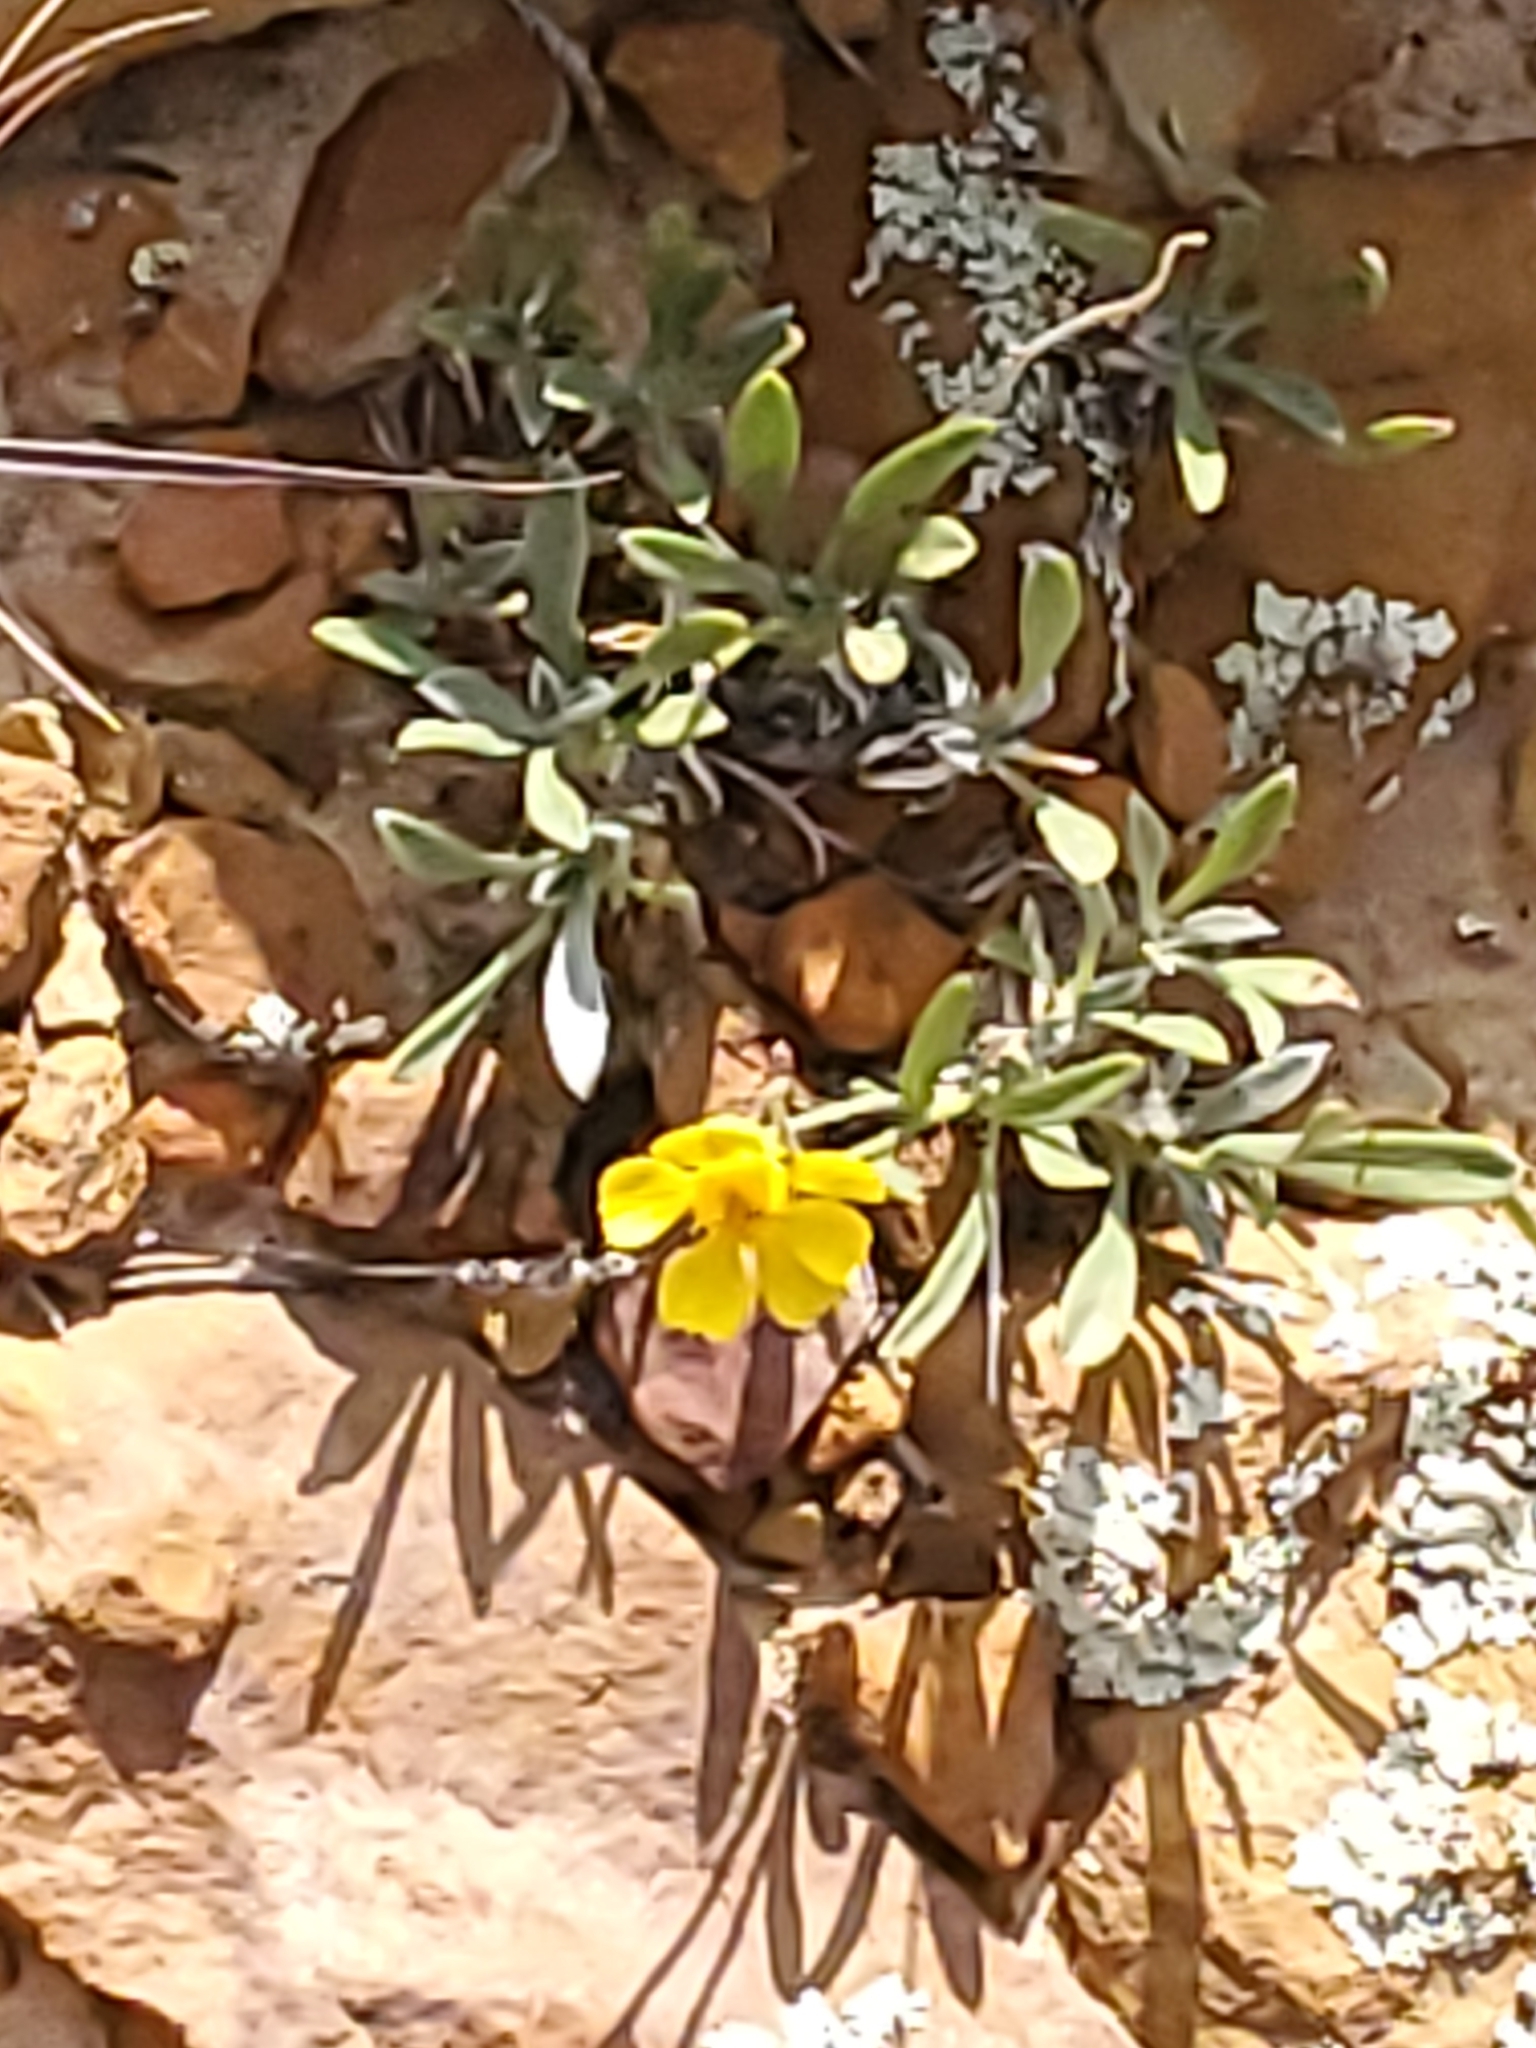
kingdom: Plantae
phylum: Tracheophyta
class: Magnoliopsida
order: Asterales
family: Asteraceae
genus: Tetraneuris
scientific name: Tetraneuris argentea
